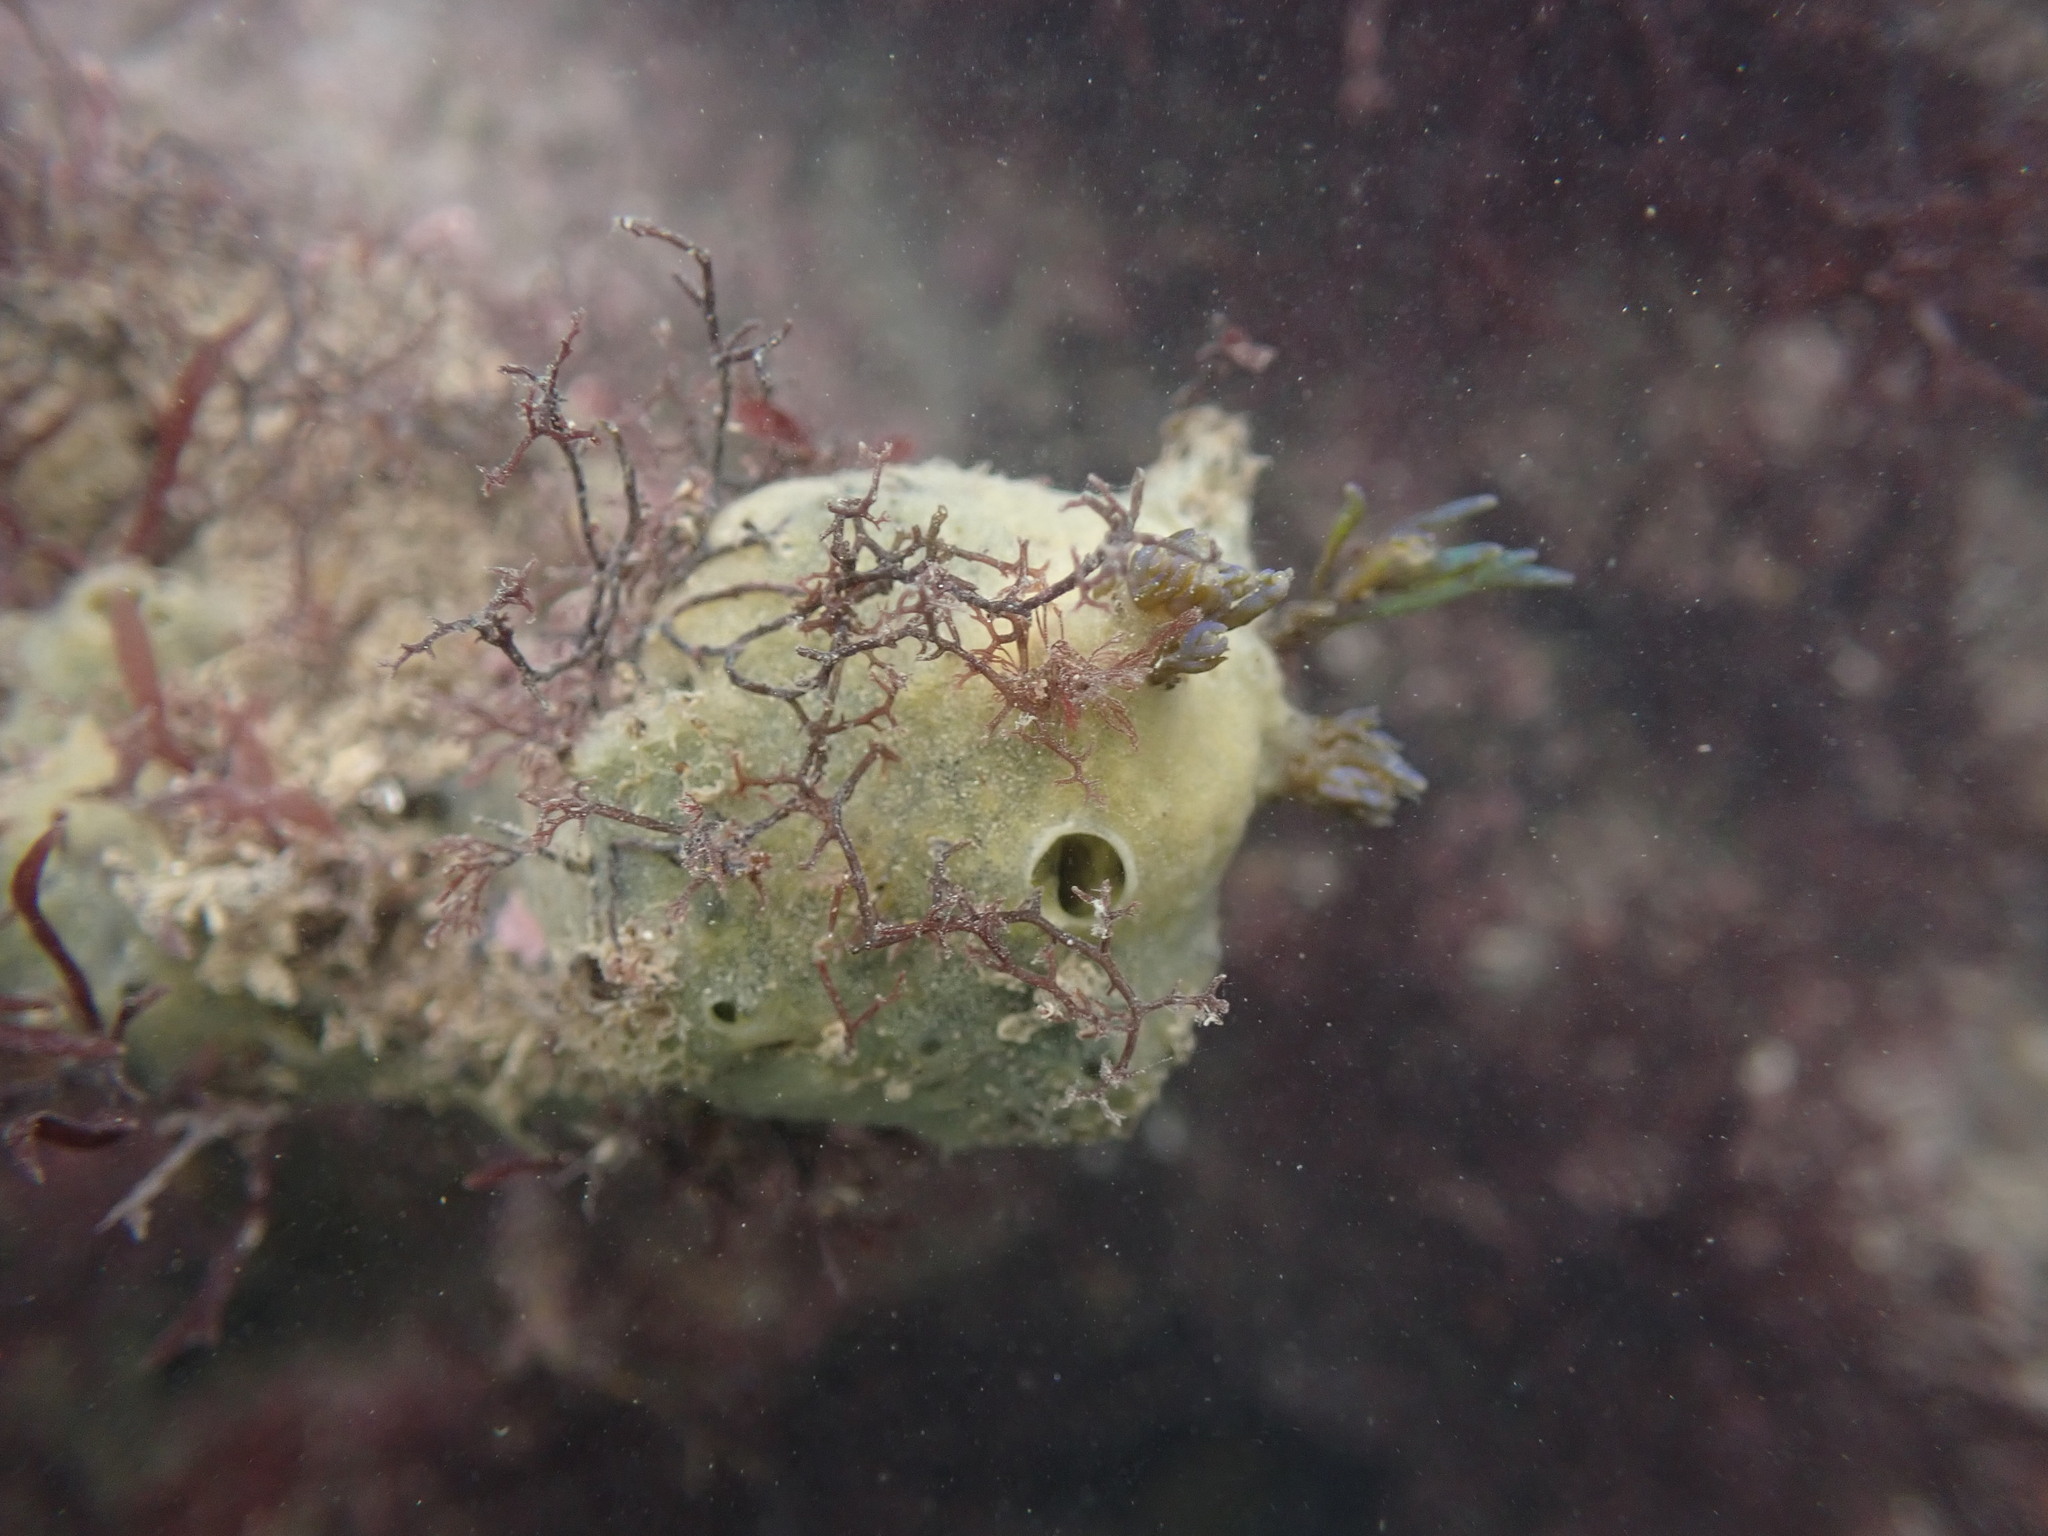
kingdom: Animalia
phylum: Porifera
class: Demospongiae
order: Suberitida
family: Halichondriidae
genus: Halichondria
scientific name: Halichondria panicea
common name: Breadcrumb sponge
